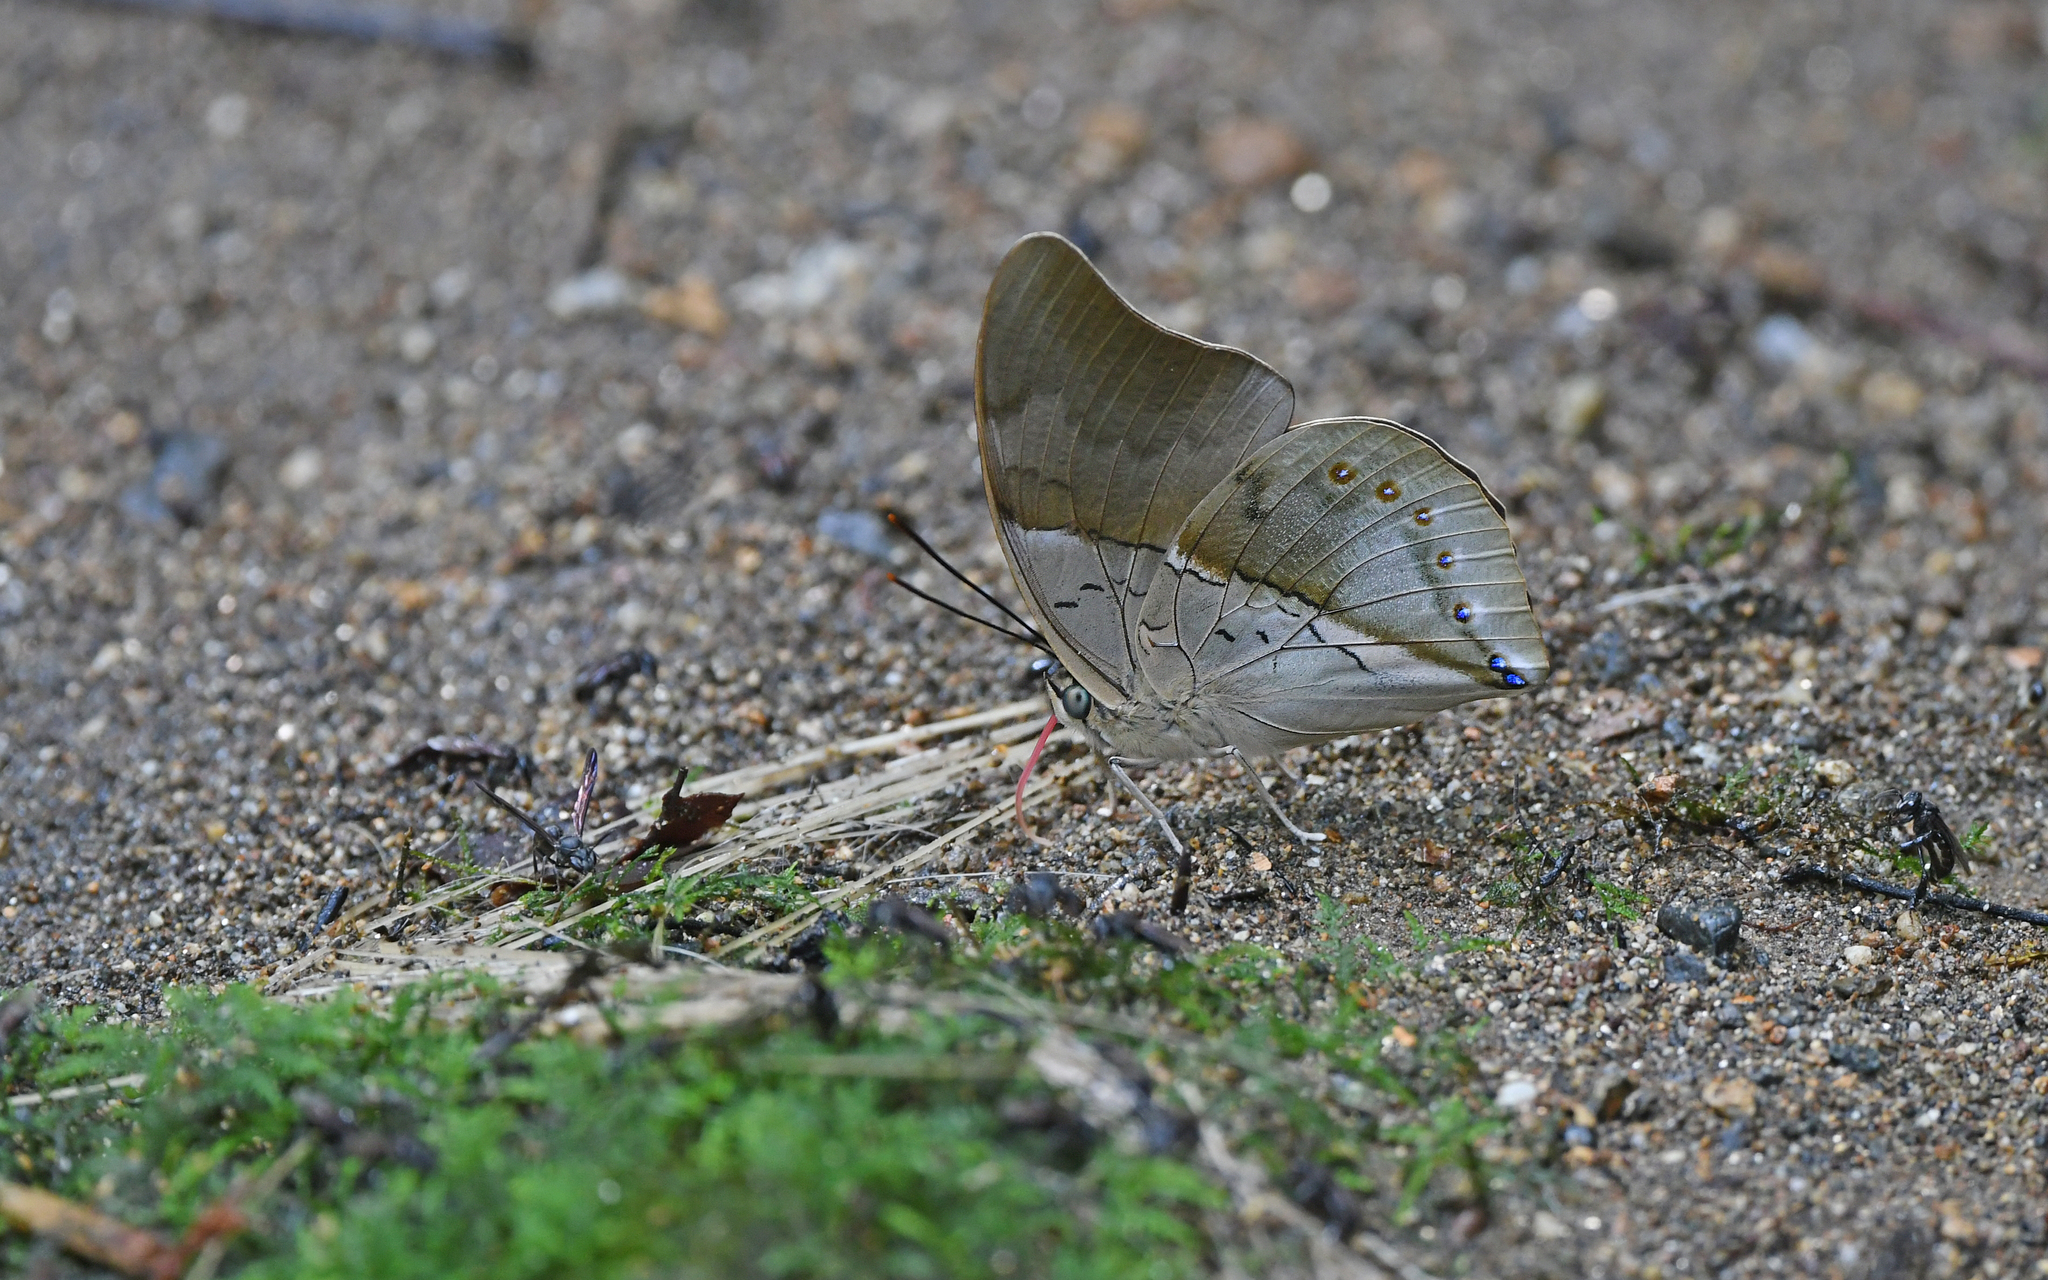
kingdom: Animalia
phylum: Arthropoda
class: Insecta
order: Lepidoptera
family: Nymphalidae
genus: Prepona
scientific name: Prepona
